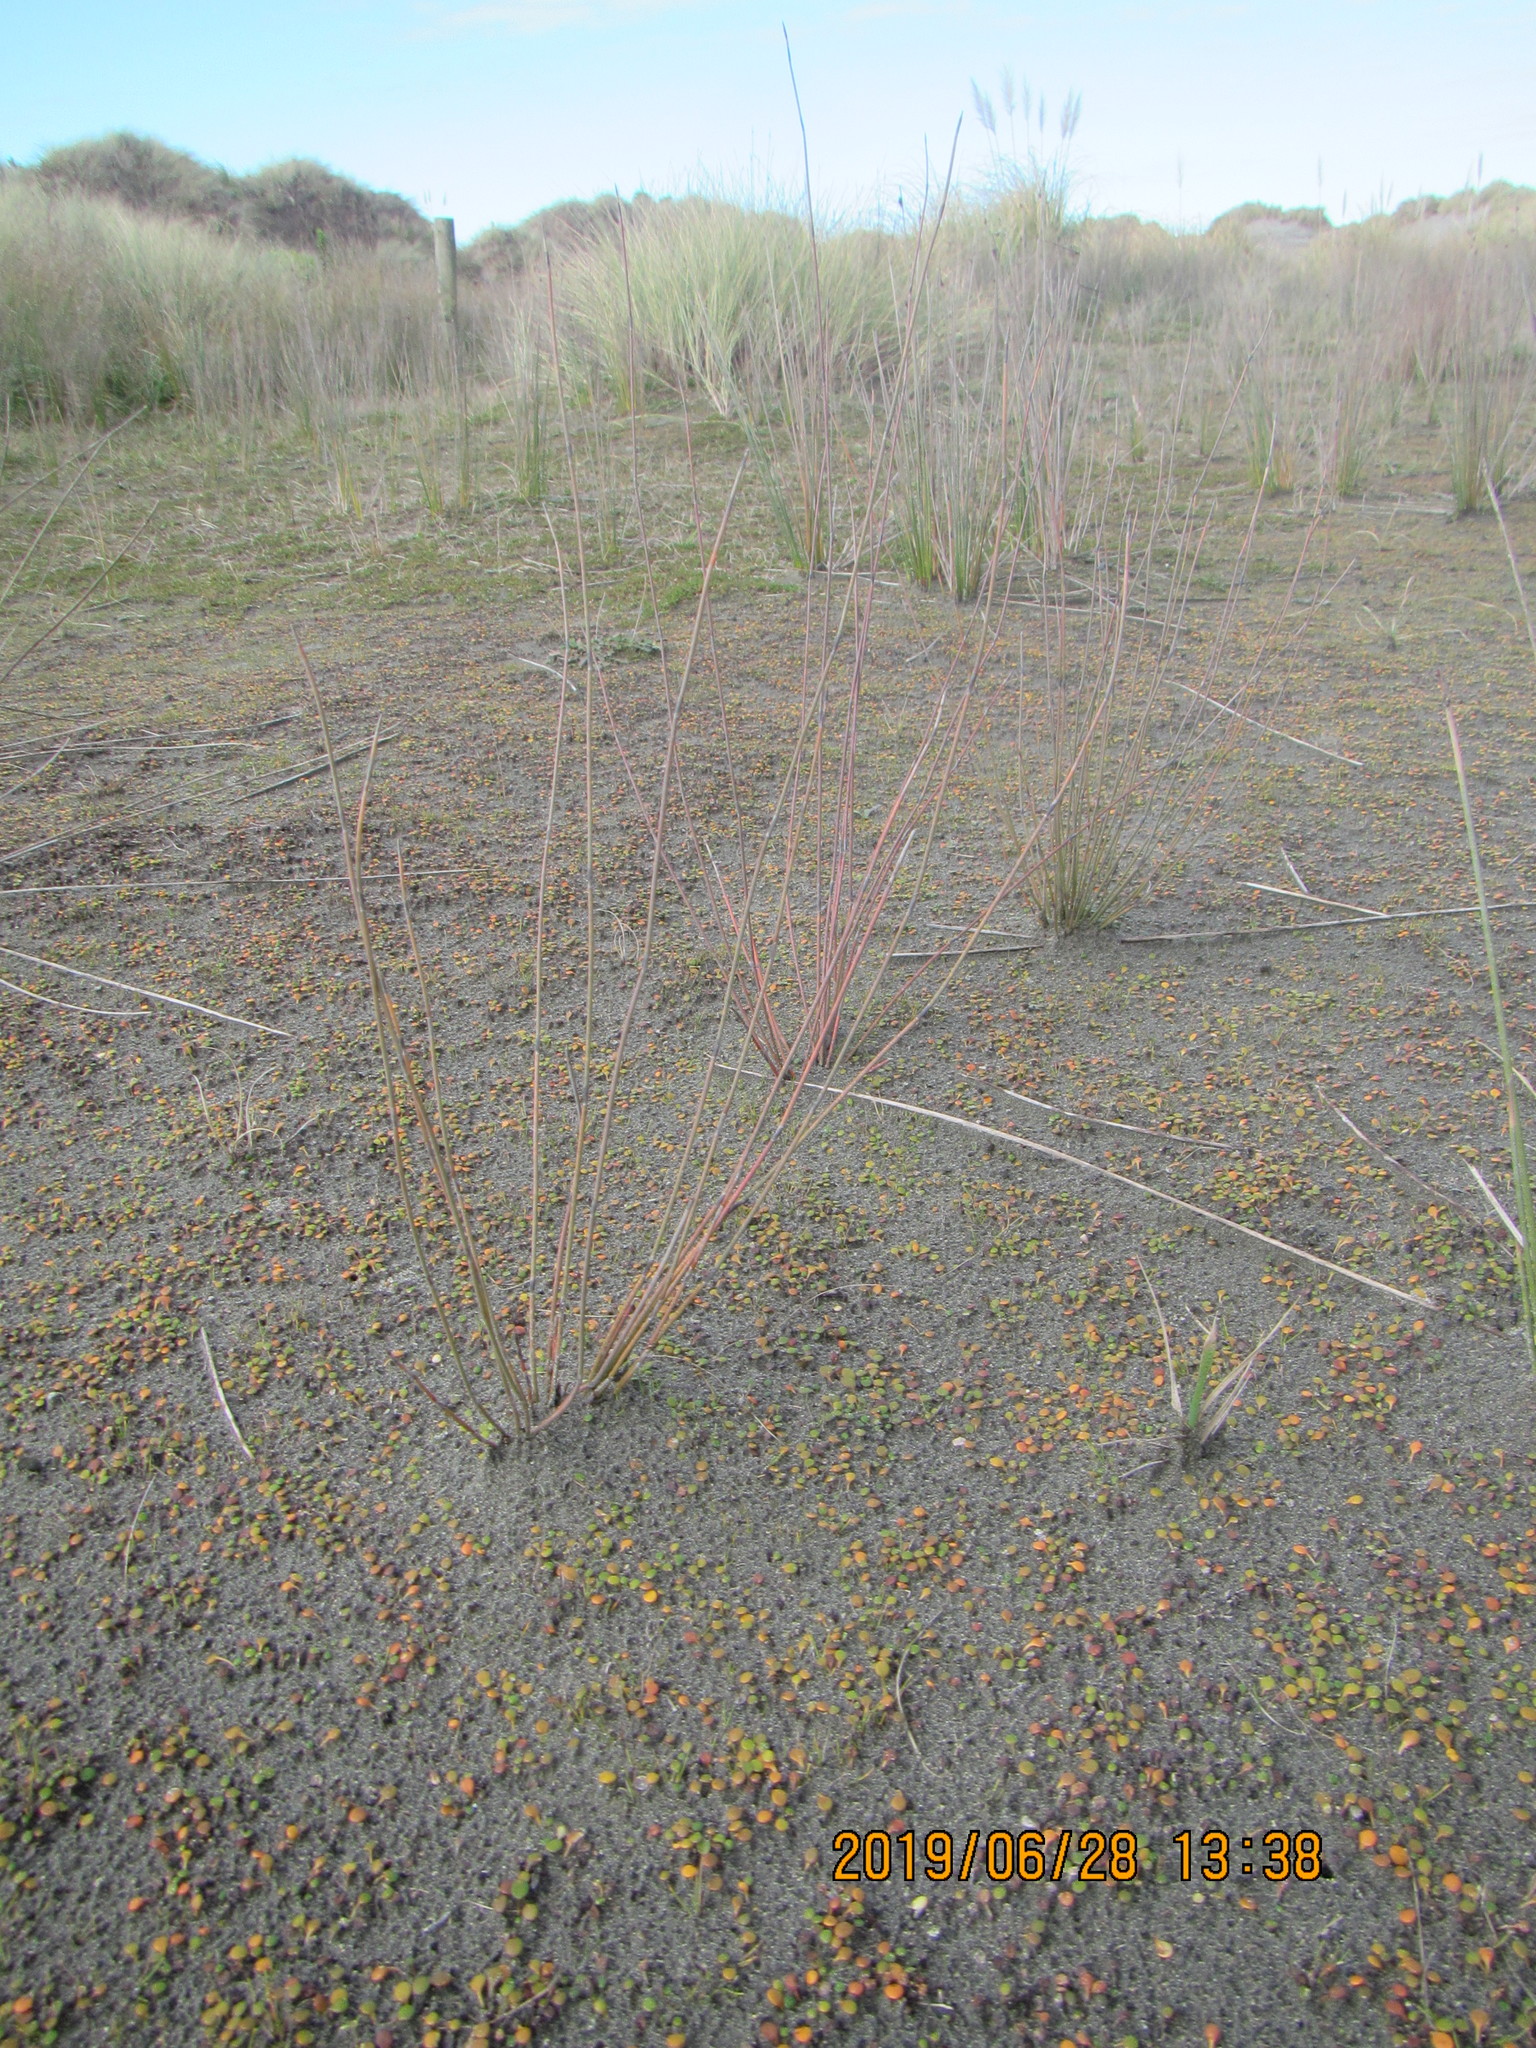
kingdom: Plantae
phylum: Tracheophyta
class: Liliopsida
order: Poales
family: Restionaceae
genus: Apodasmia
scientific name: Apodasmia similis
